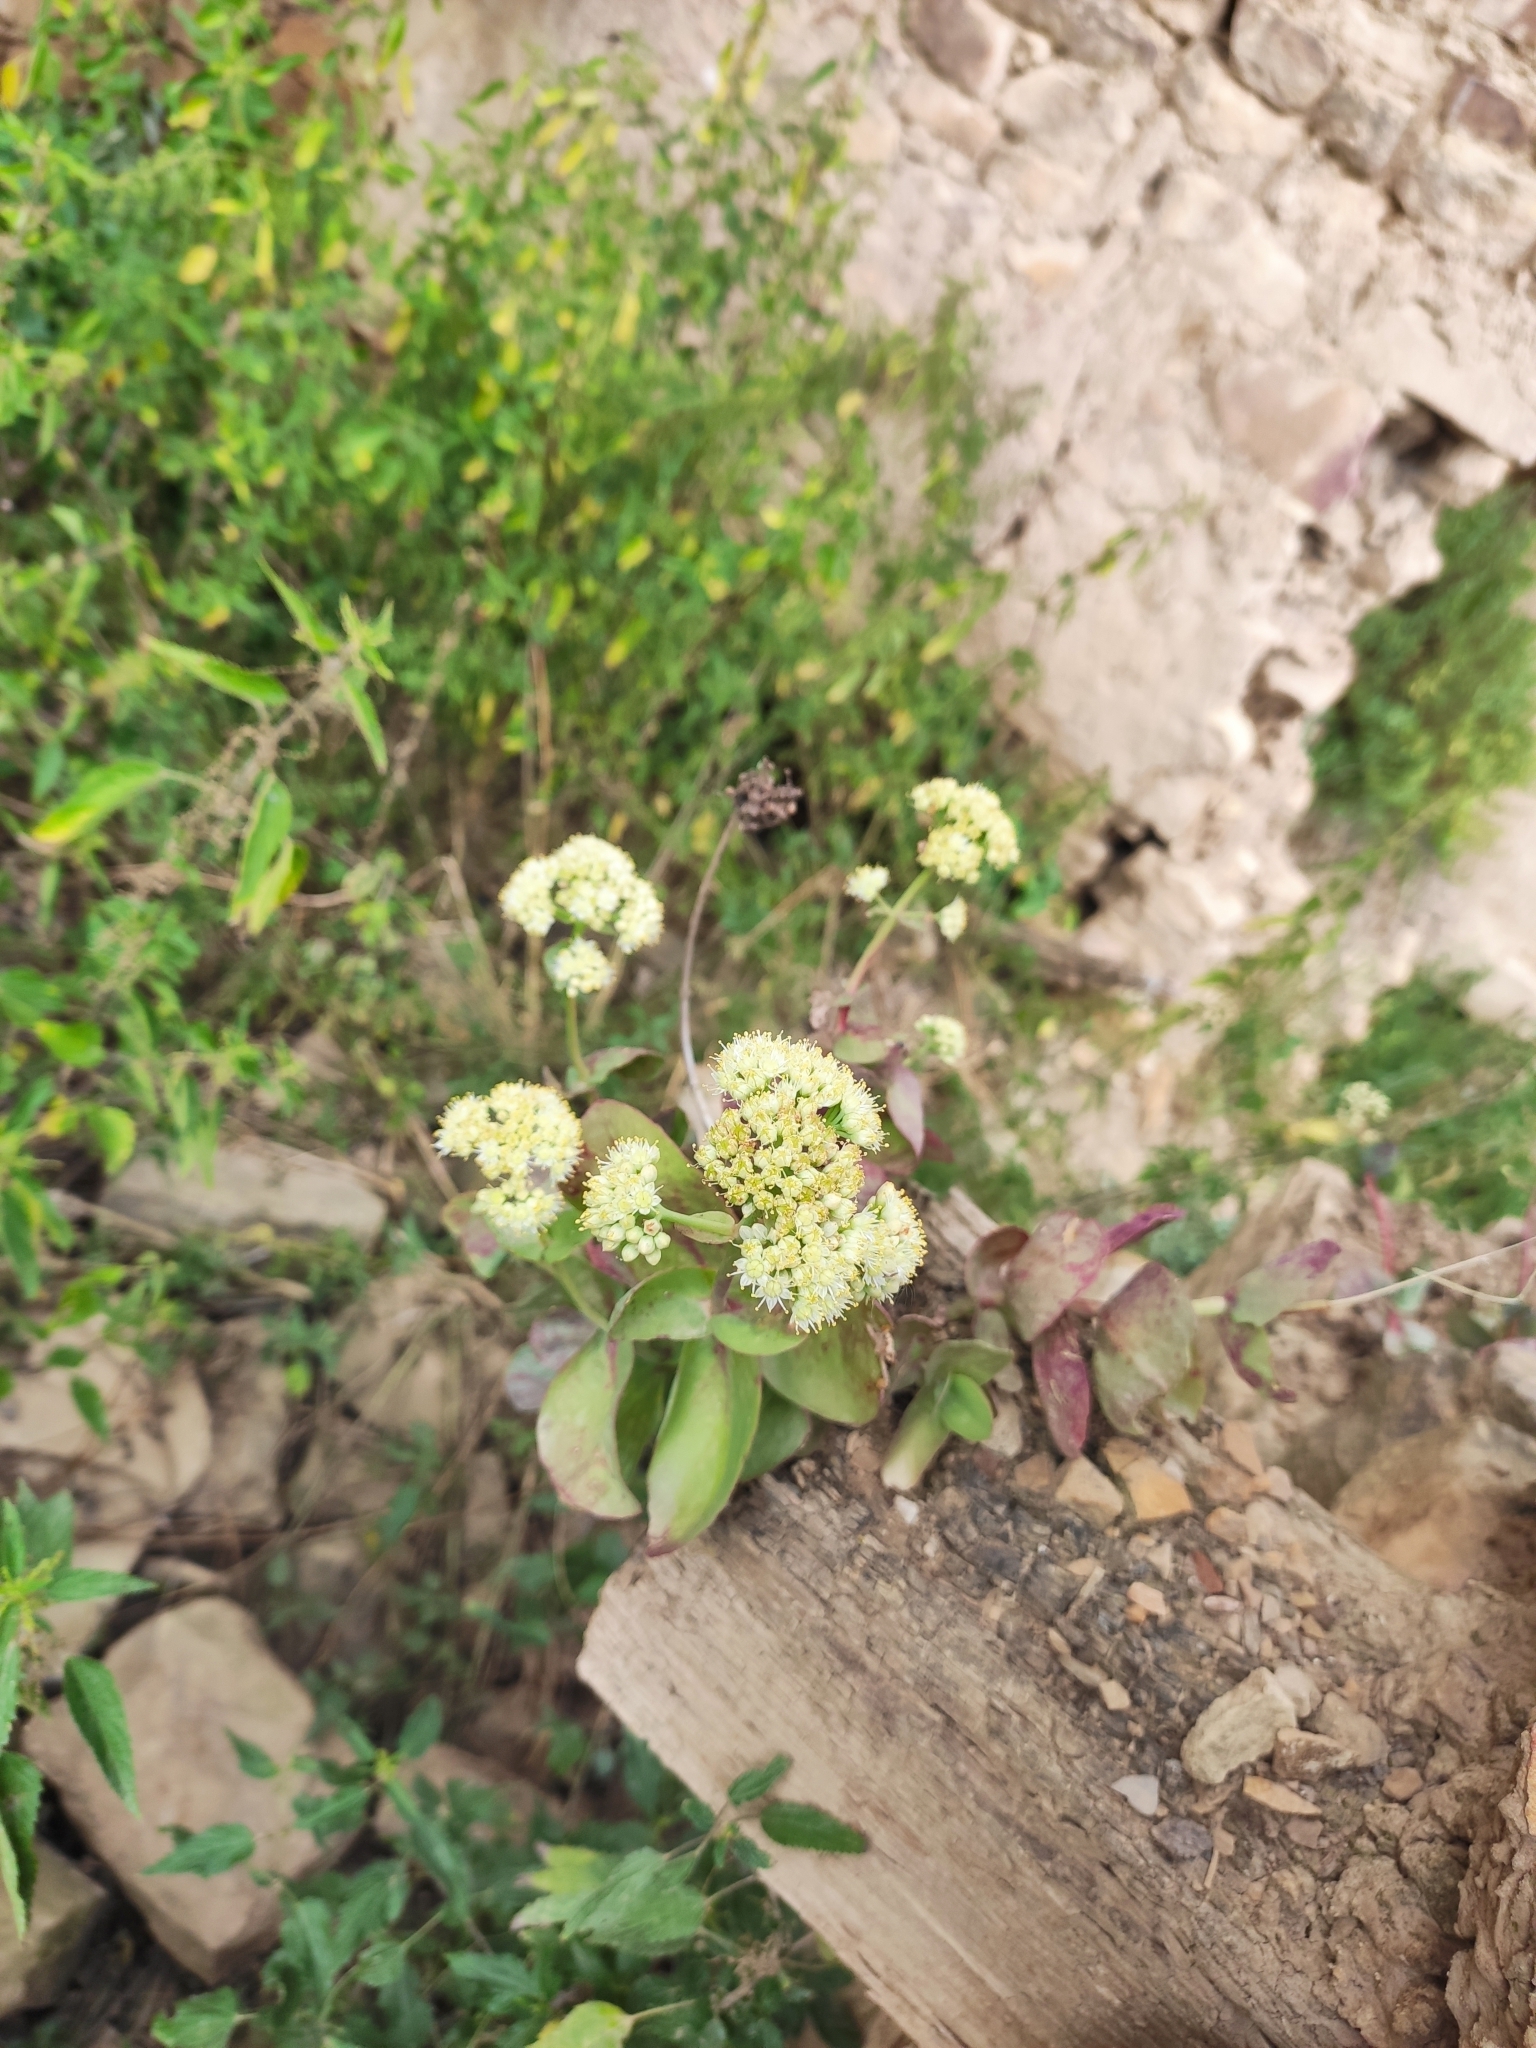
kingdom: Plantae
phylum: Tracheophyta
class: Magnoliopsida
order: Saxifragales
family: Crassulaceae
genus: Hylotelephium
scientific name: Hylotelephium maximum
